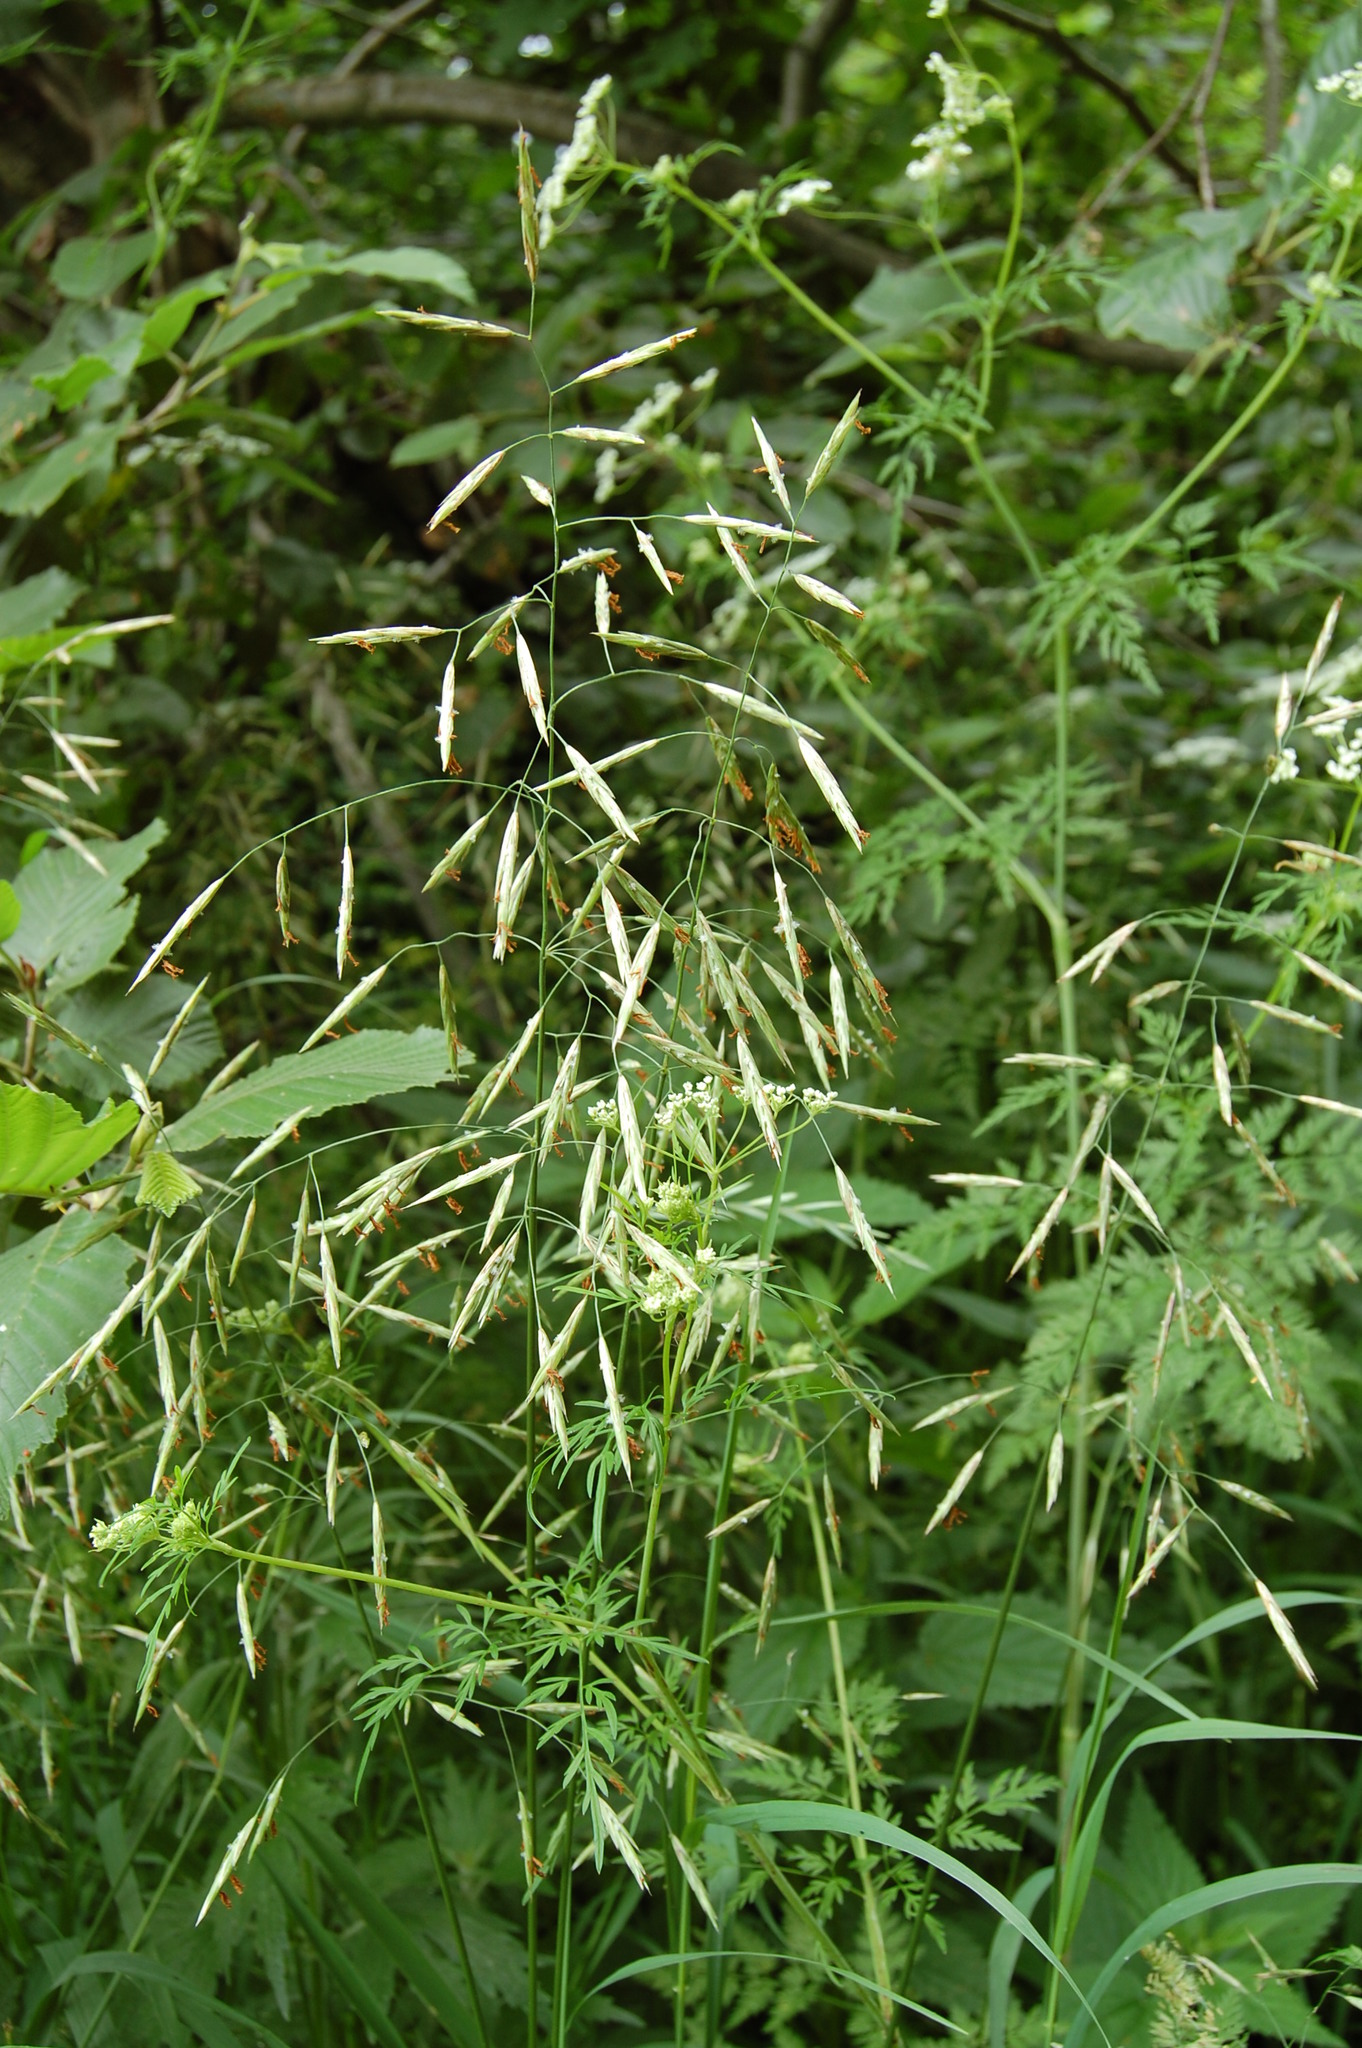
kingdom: Plantae
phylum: Tracheophyta
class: Liliopsida
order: Poales
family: Poaceae
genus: Bromus
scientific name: Bromus inermis
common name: Smooth brome
